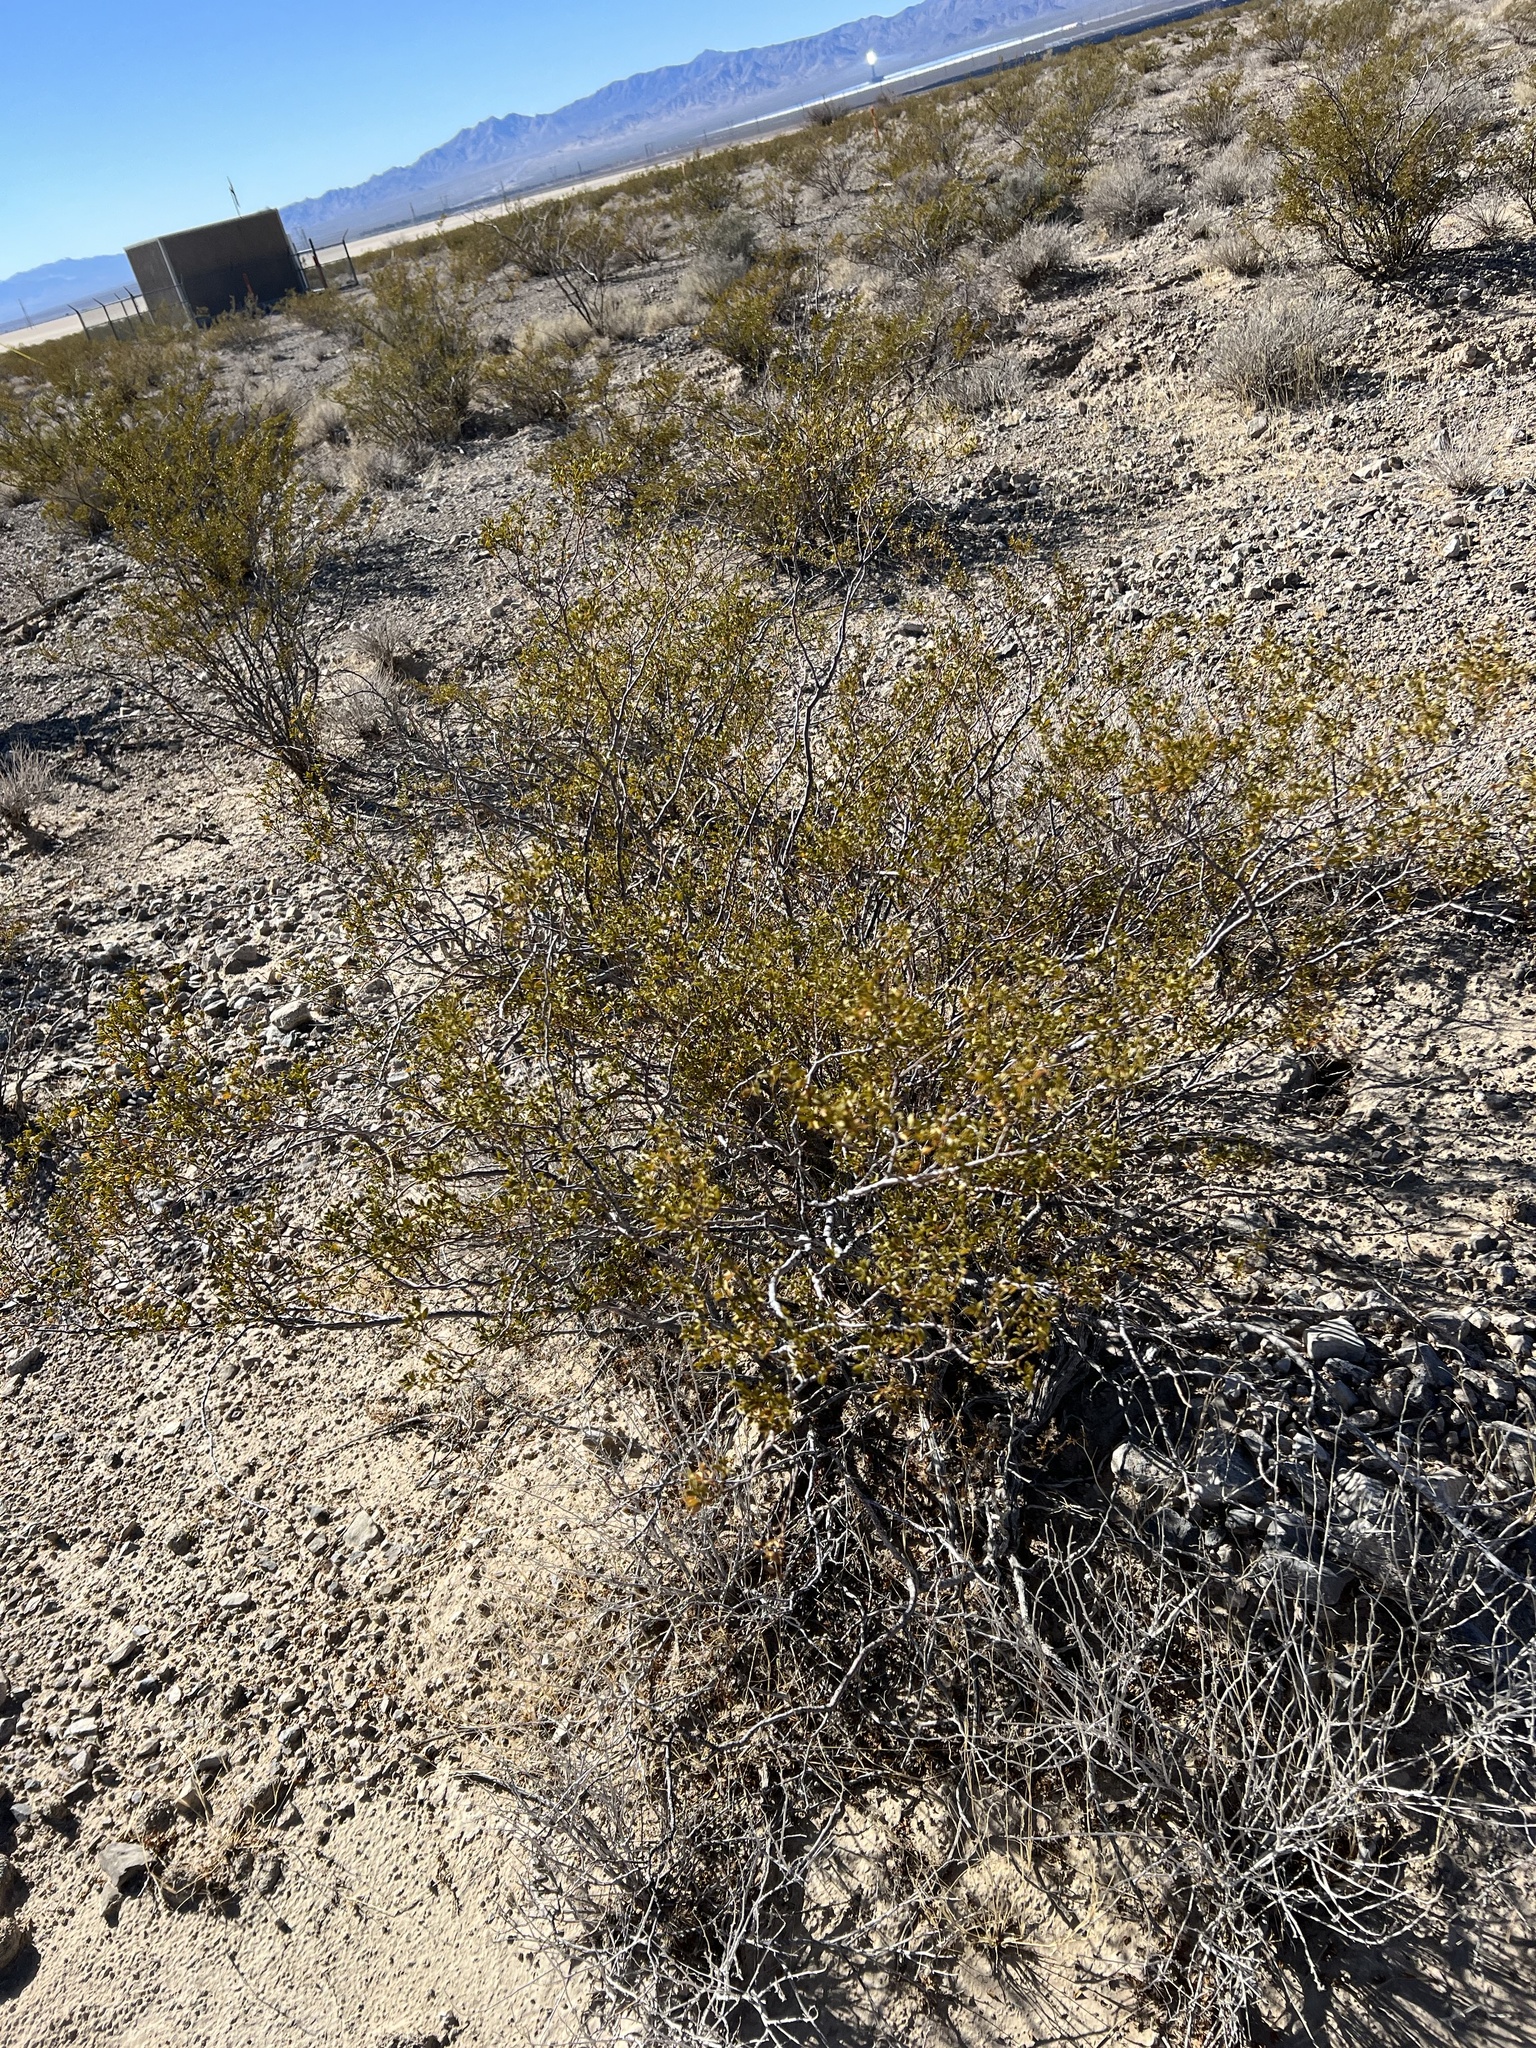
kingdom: Plantae
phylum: Tracheophyta
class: Magnoliopsida
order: Zygophyllales
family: Zygophyllaceae
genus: Larrea
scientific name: Larrea tridentata
